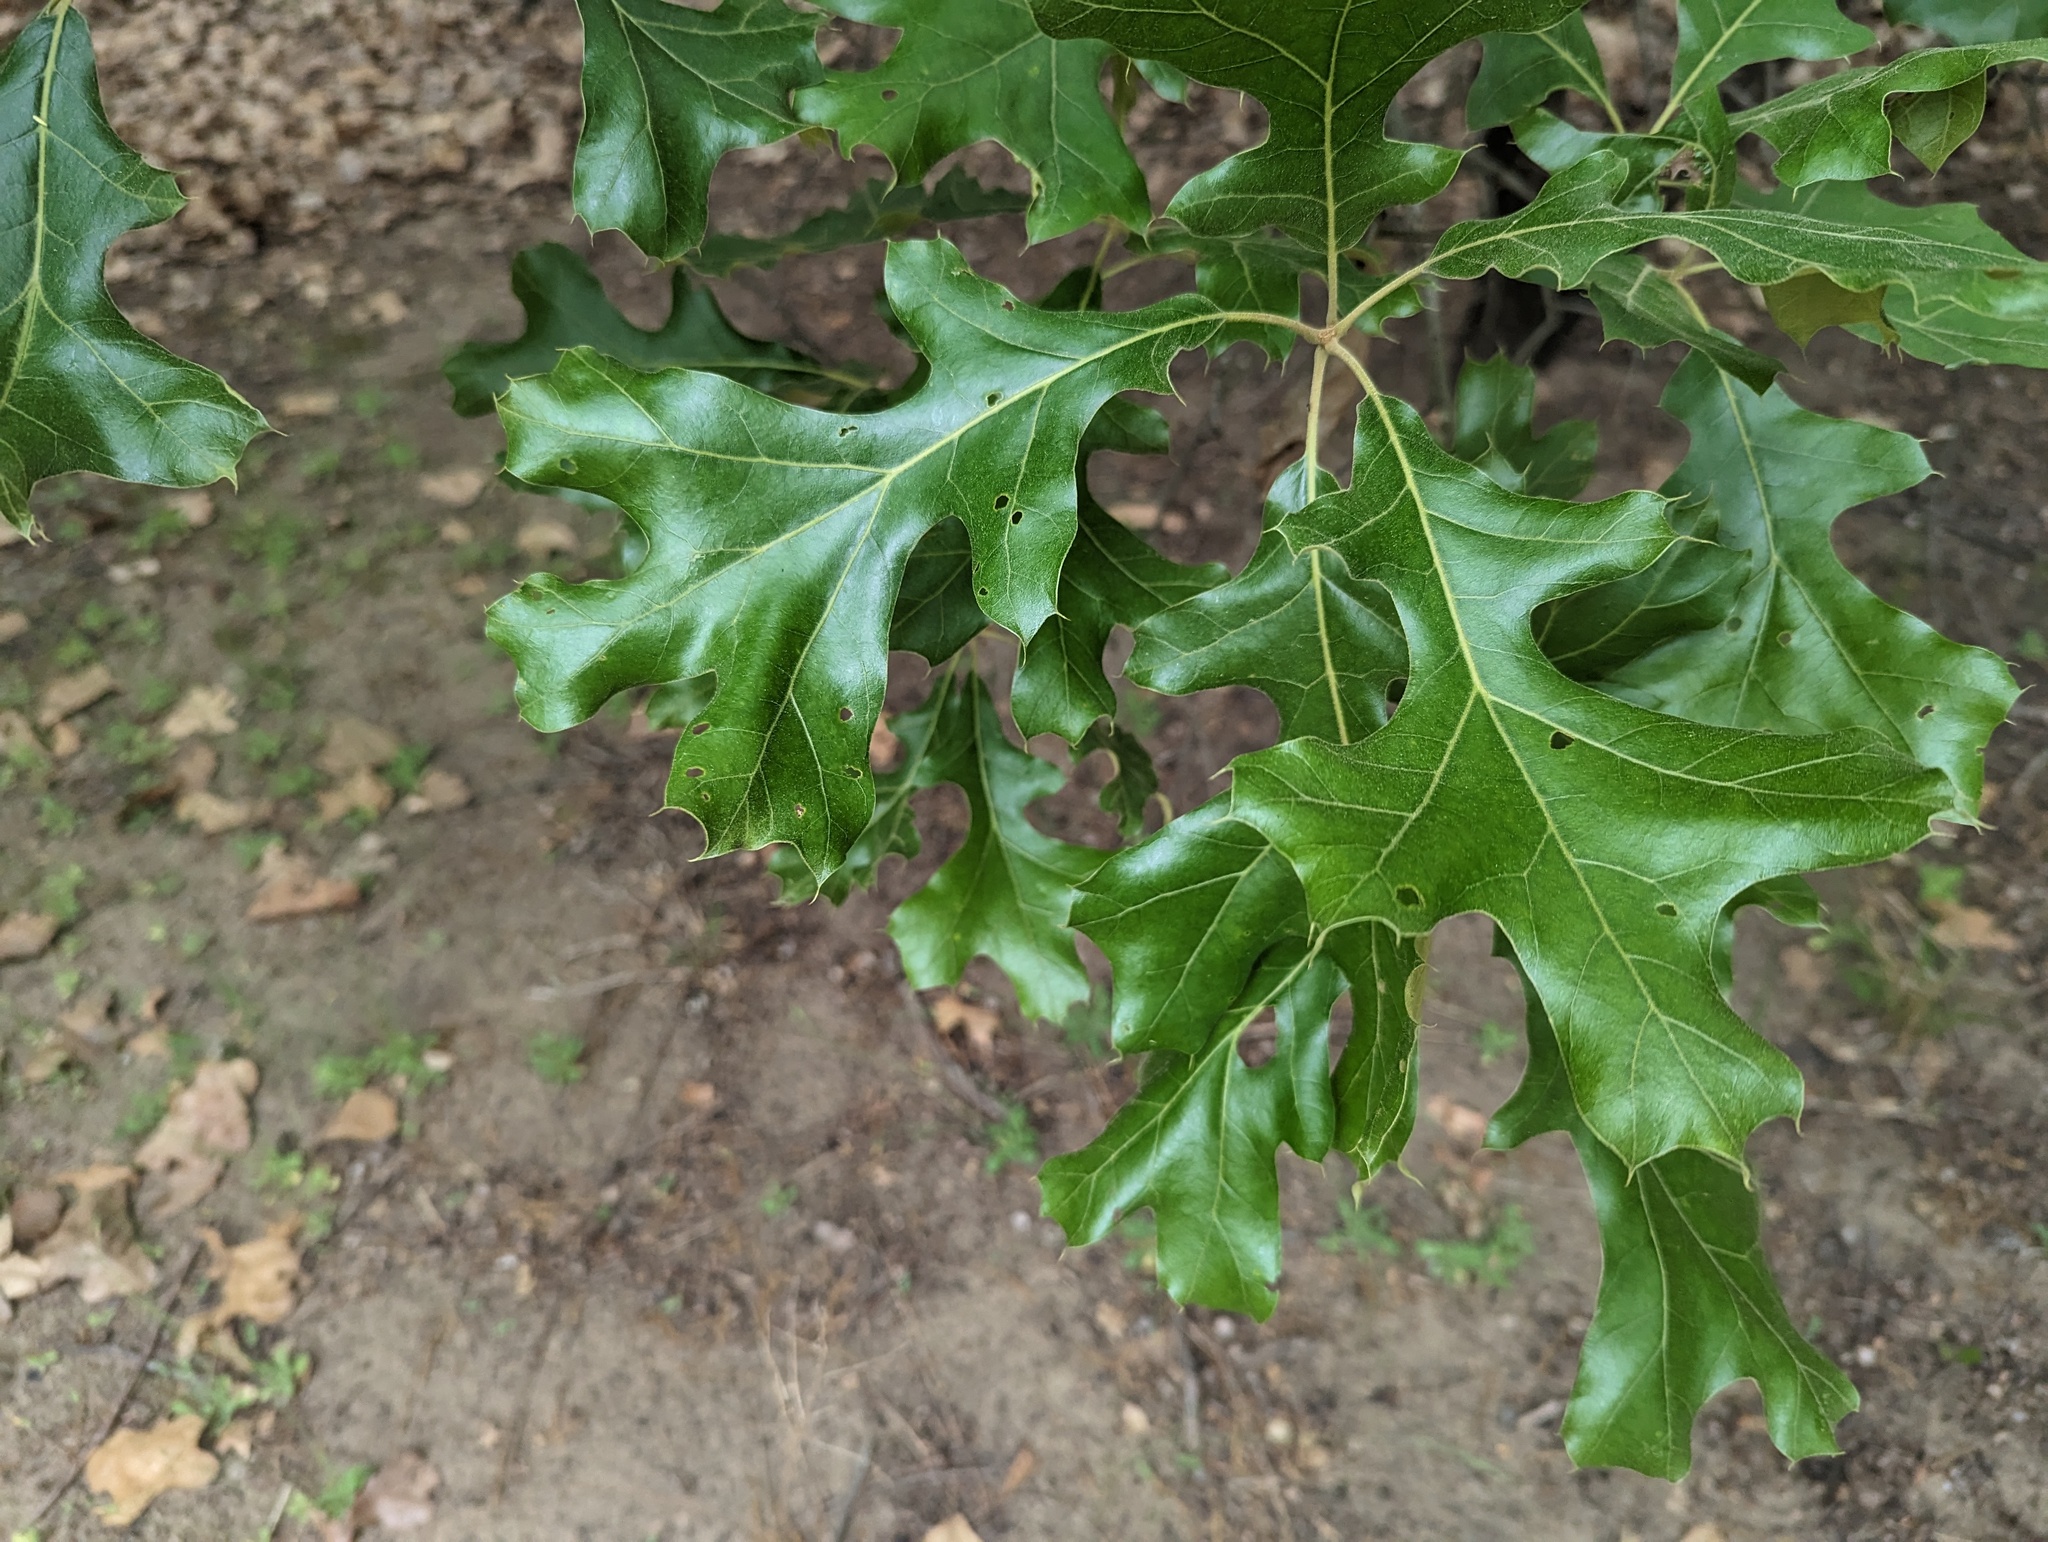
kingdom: Plantae
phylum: Tracheophyta
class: Magnoliopsida
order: Fagales
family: Fagaceae
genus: Quercus
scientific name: Quercus velutina
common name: Black oak
